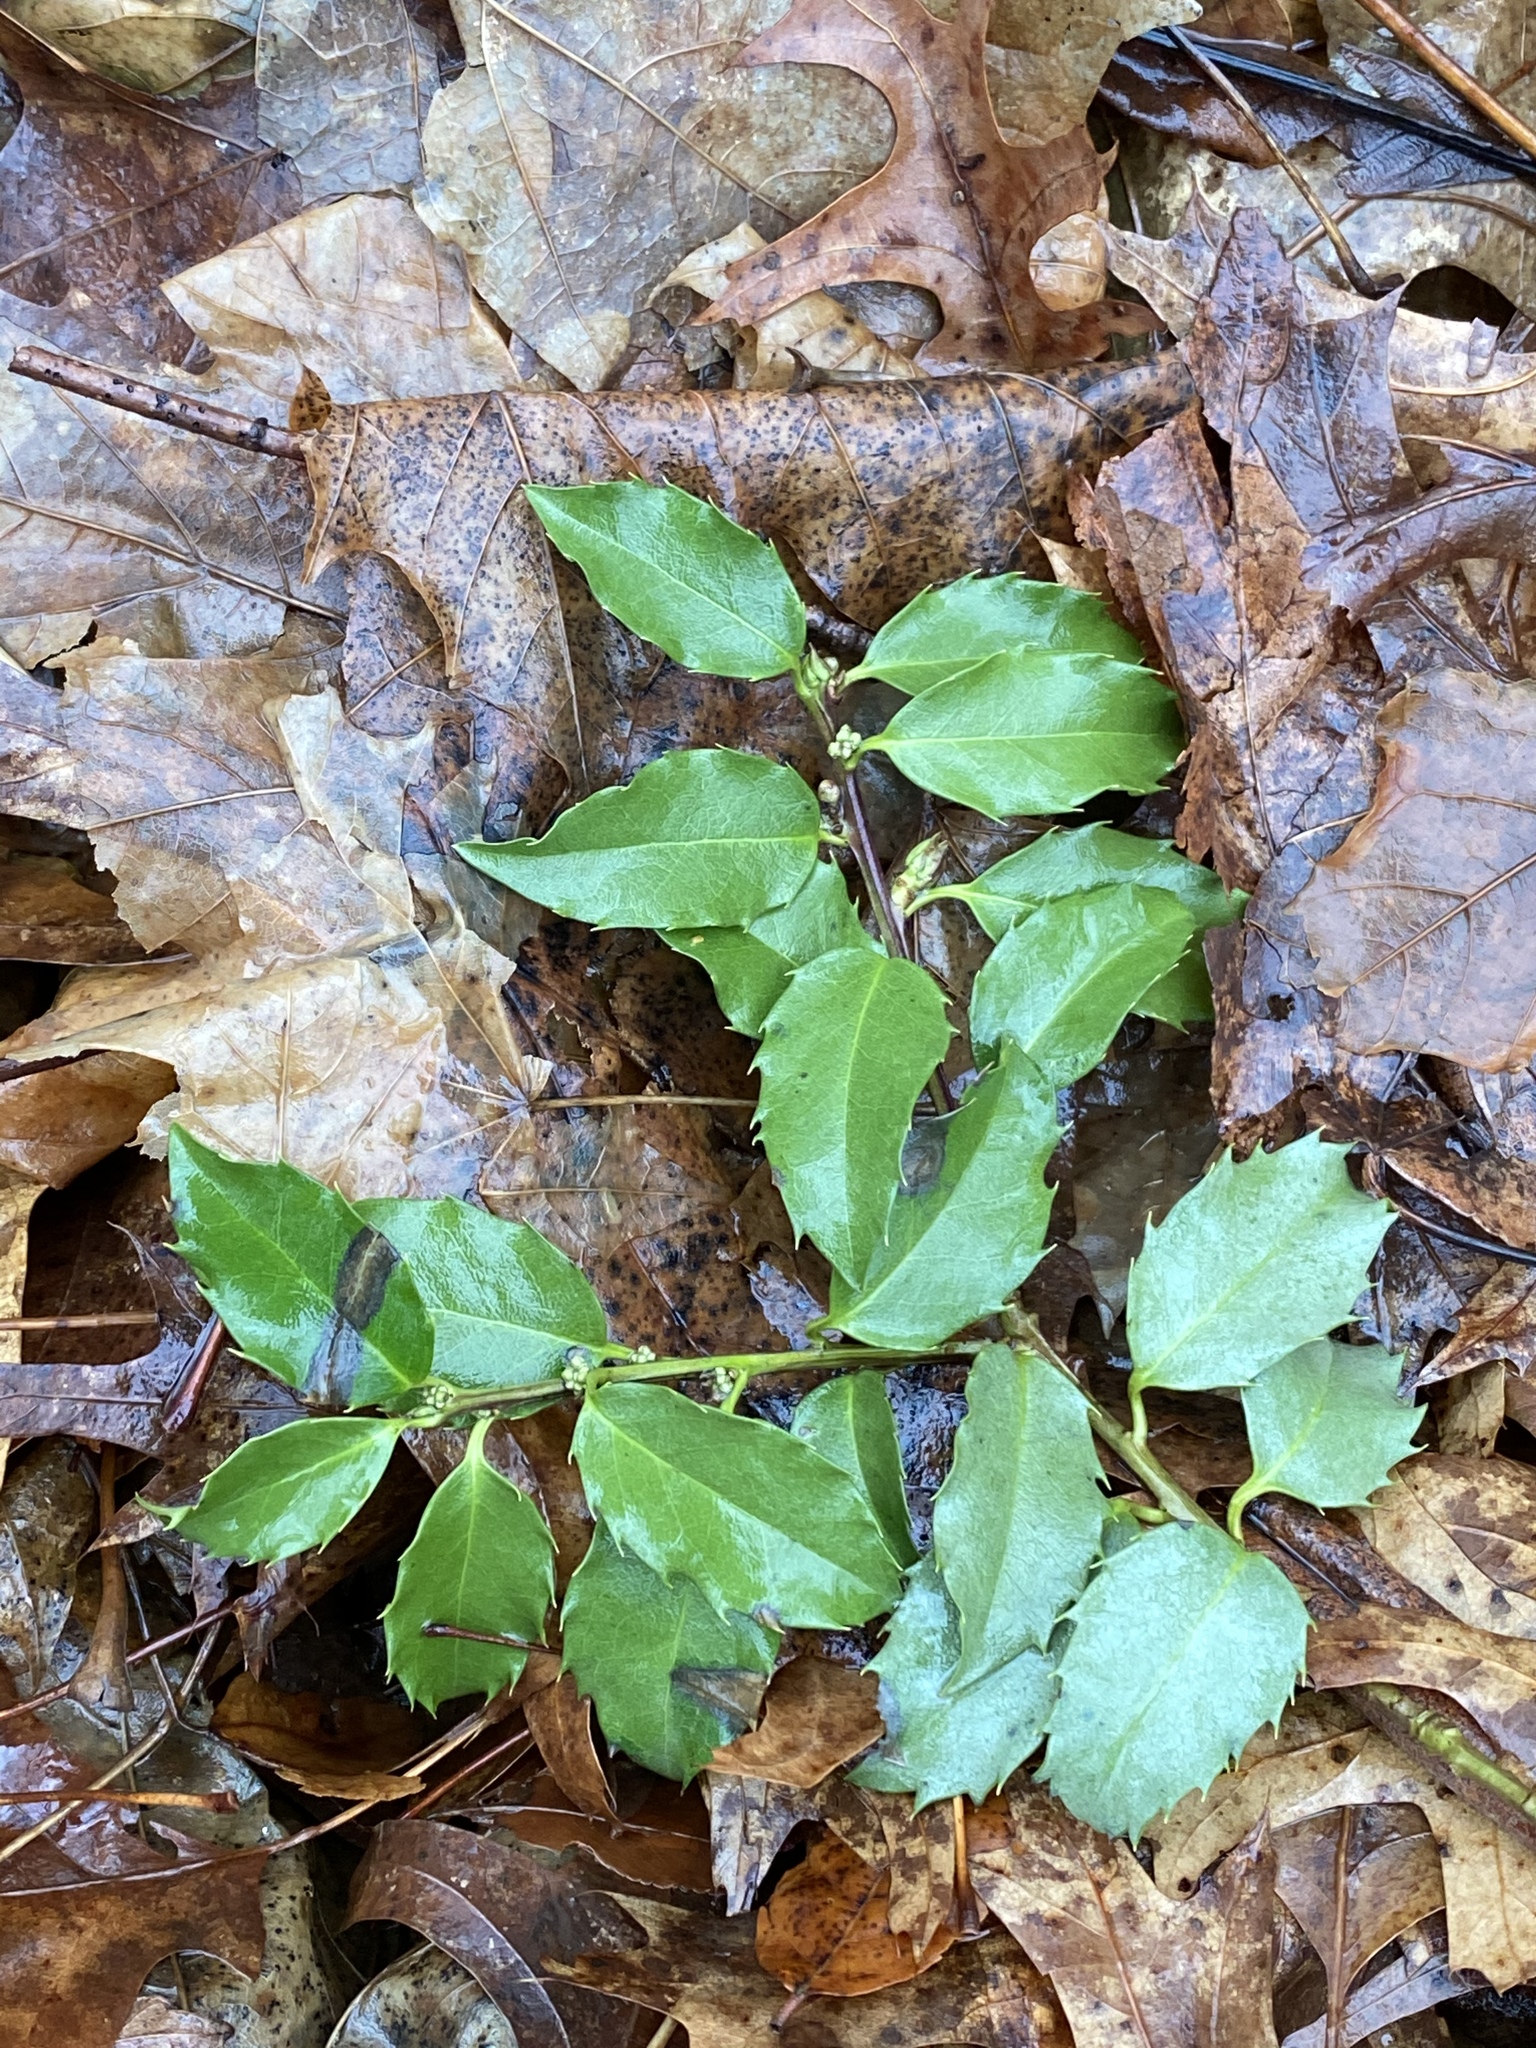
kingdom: Plantae
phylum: Tracheophyta
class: Magnoliopsida
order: Aquifoliales
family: Aquifoliaceae
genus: Ilex
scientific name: Ilex meserveae
